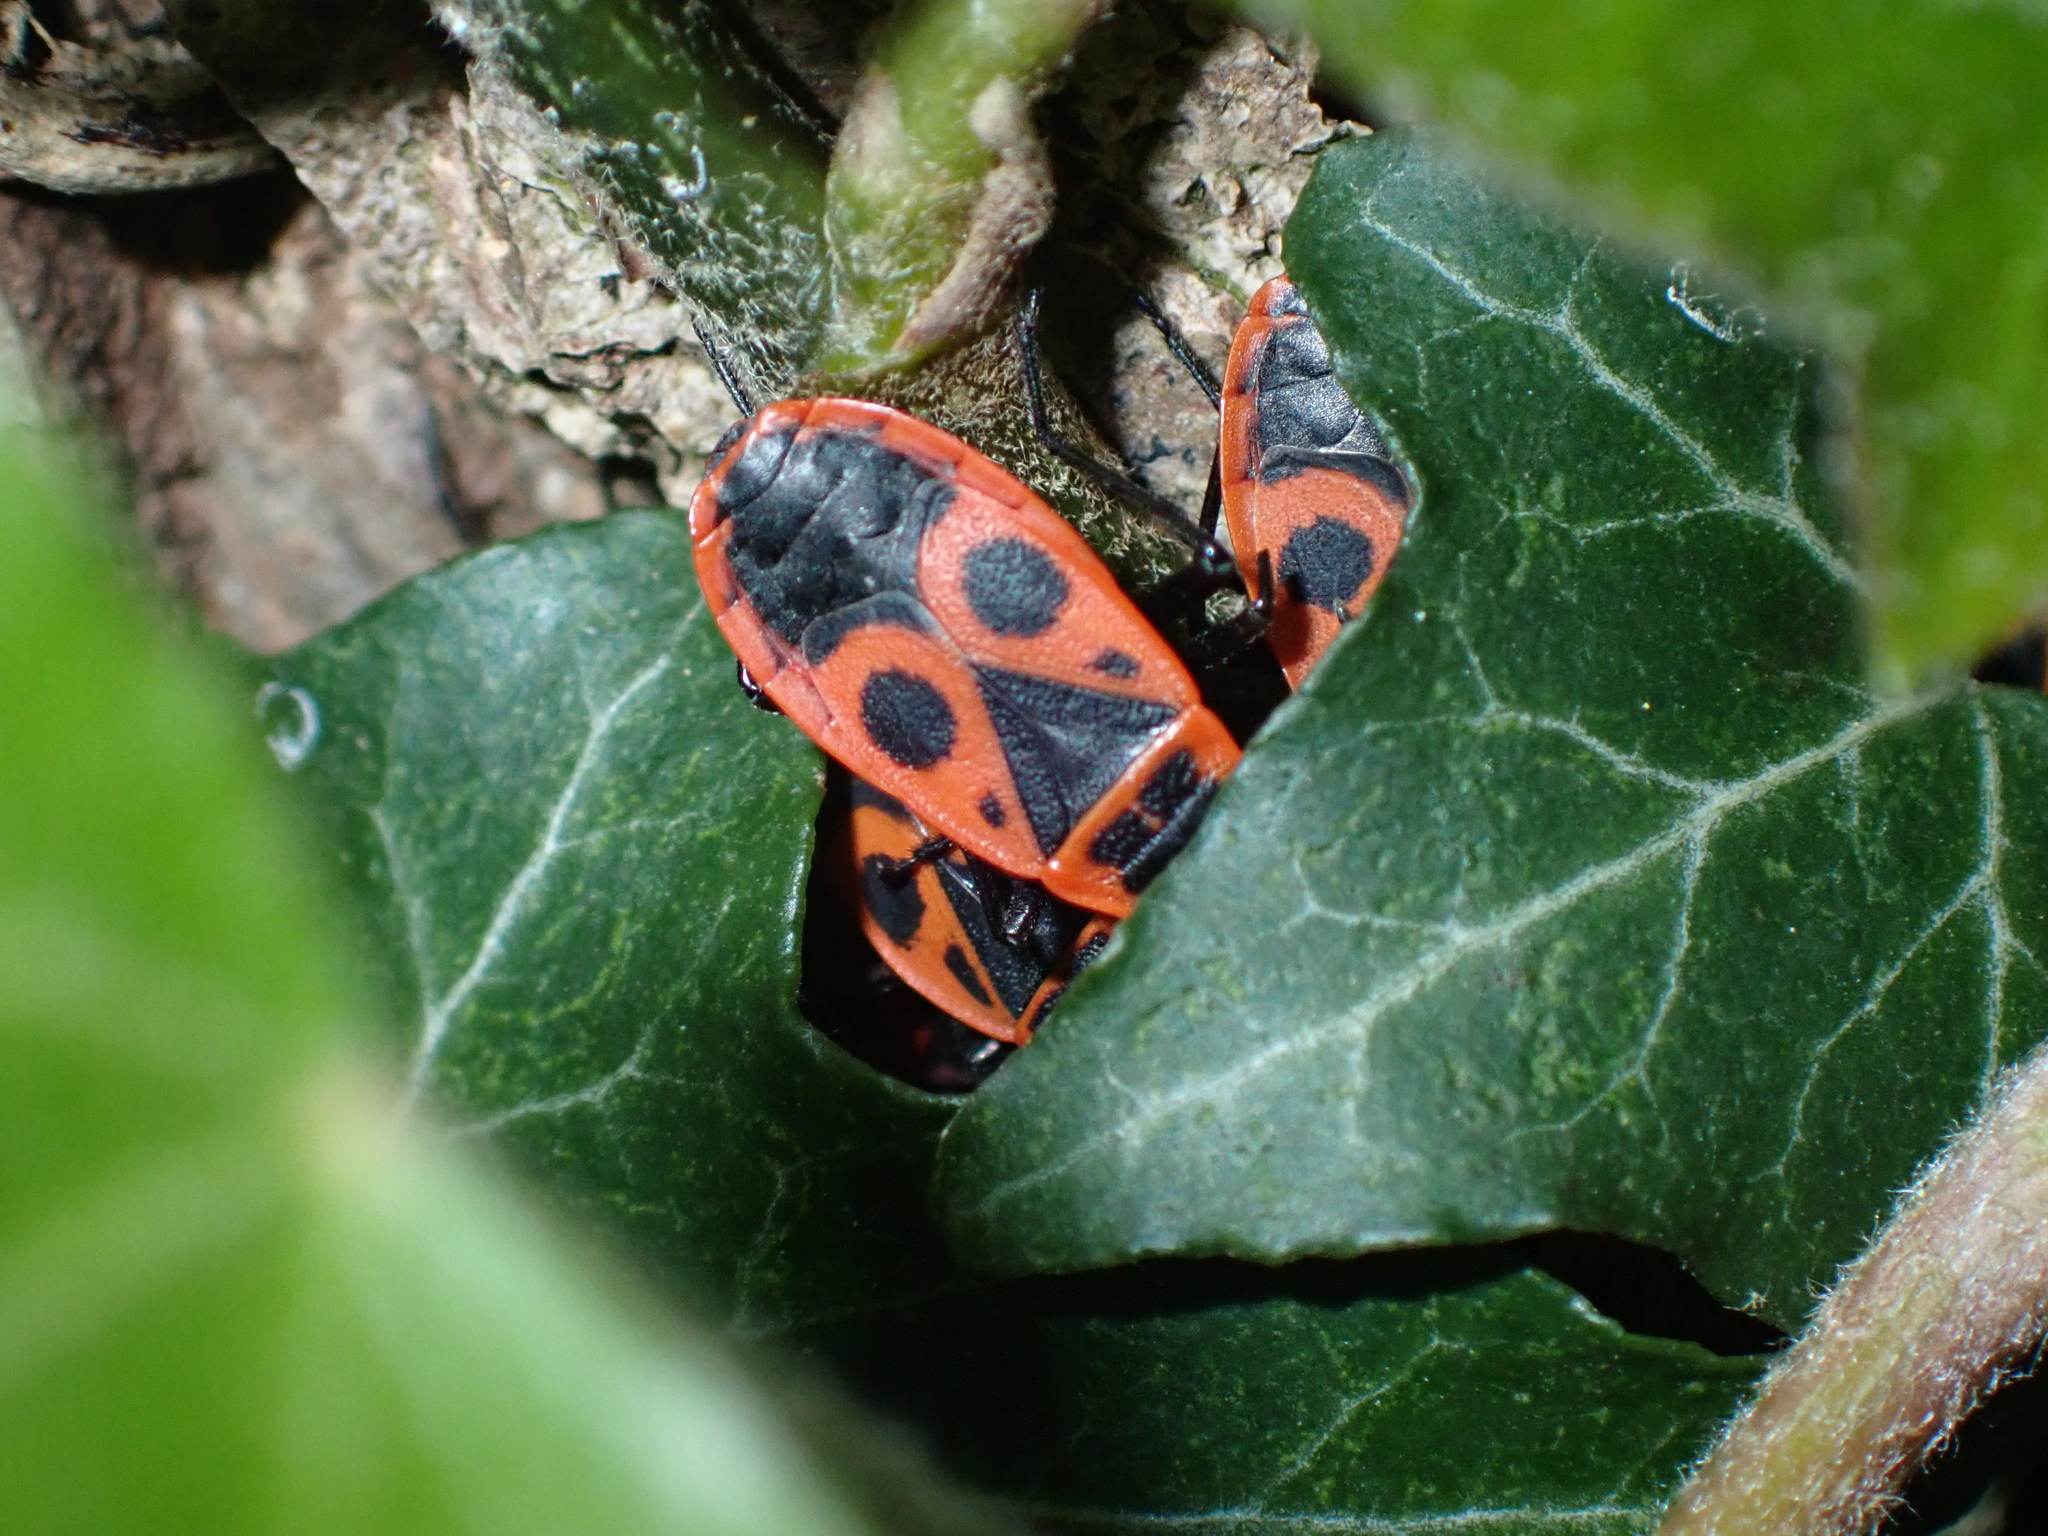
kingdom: Animalia
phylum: Arthropoda
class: Insecta
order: Hemiptera
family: Pyrrhocoridae
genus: Pyrrhocoris
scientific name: Pyrrhocoris apterus
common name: Firebug
